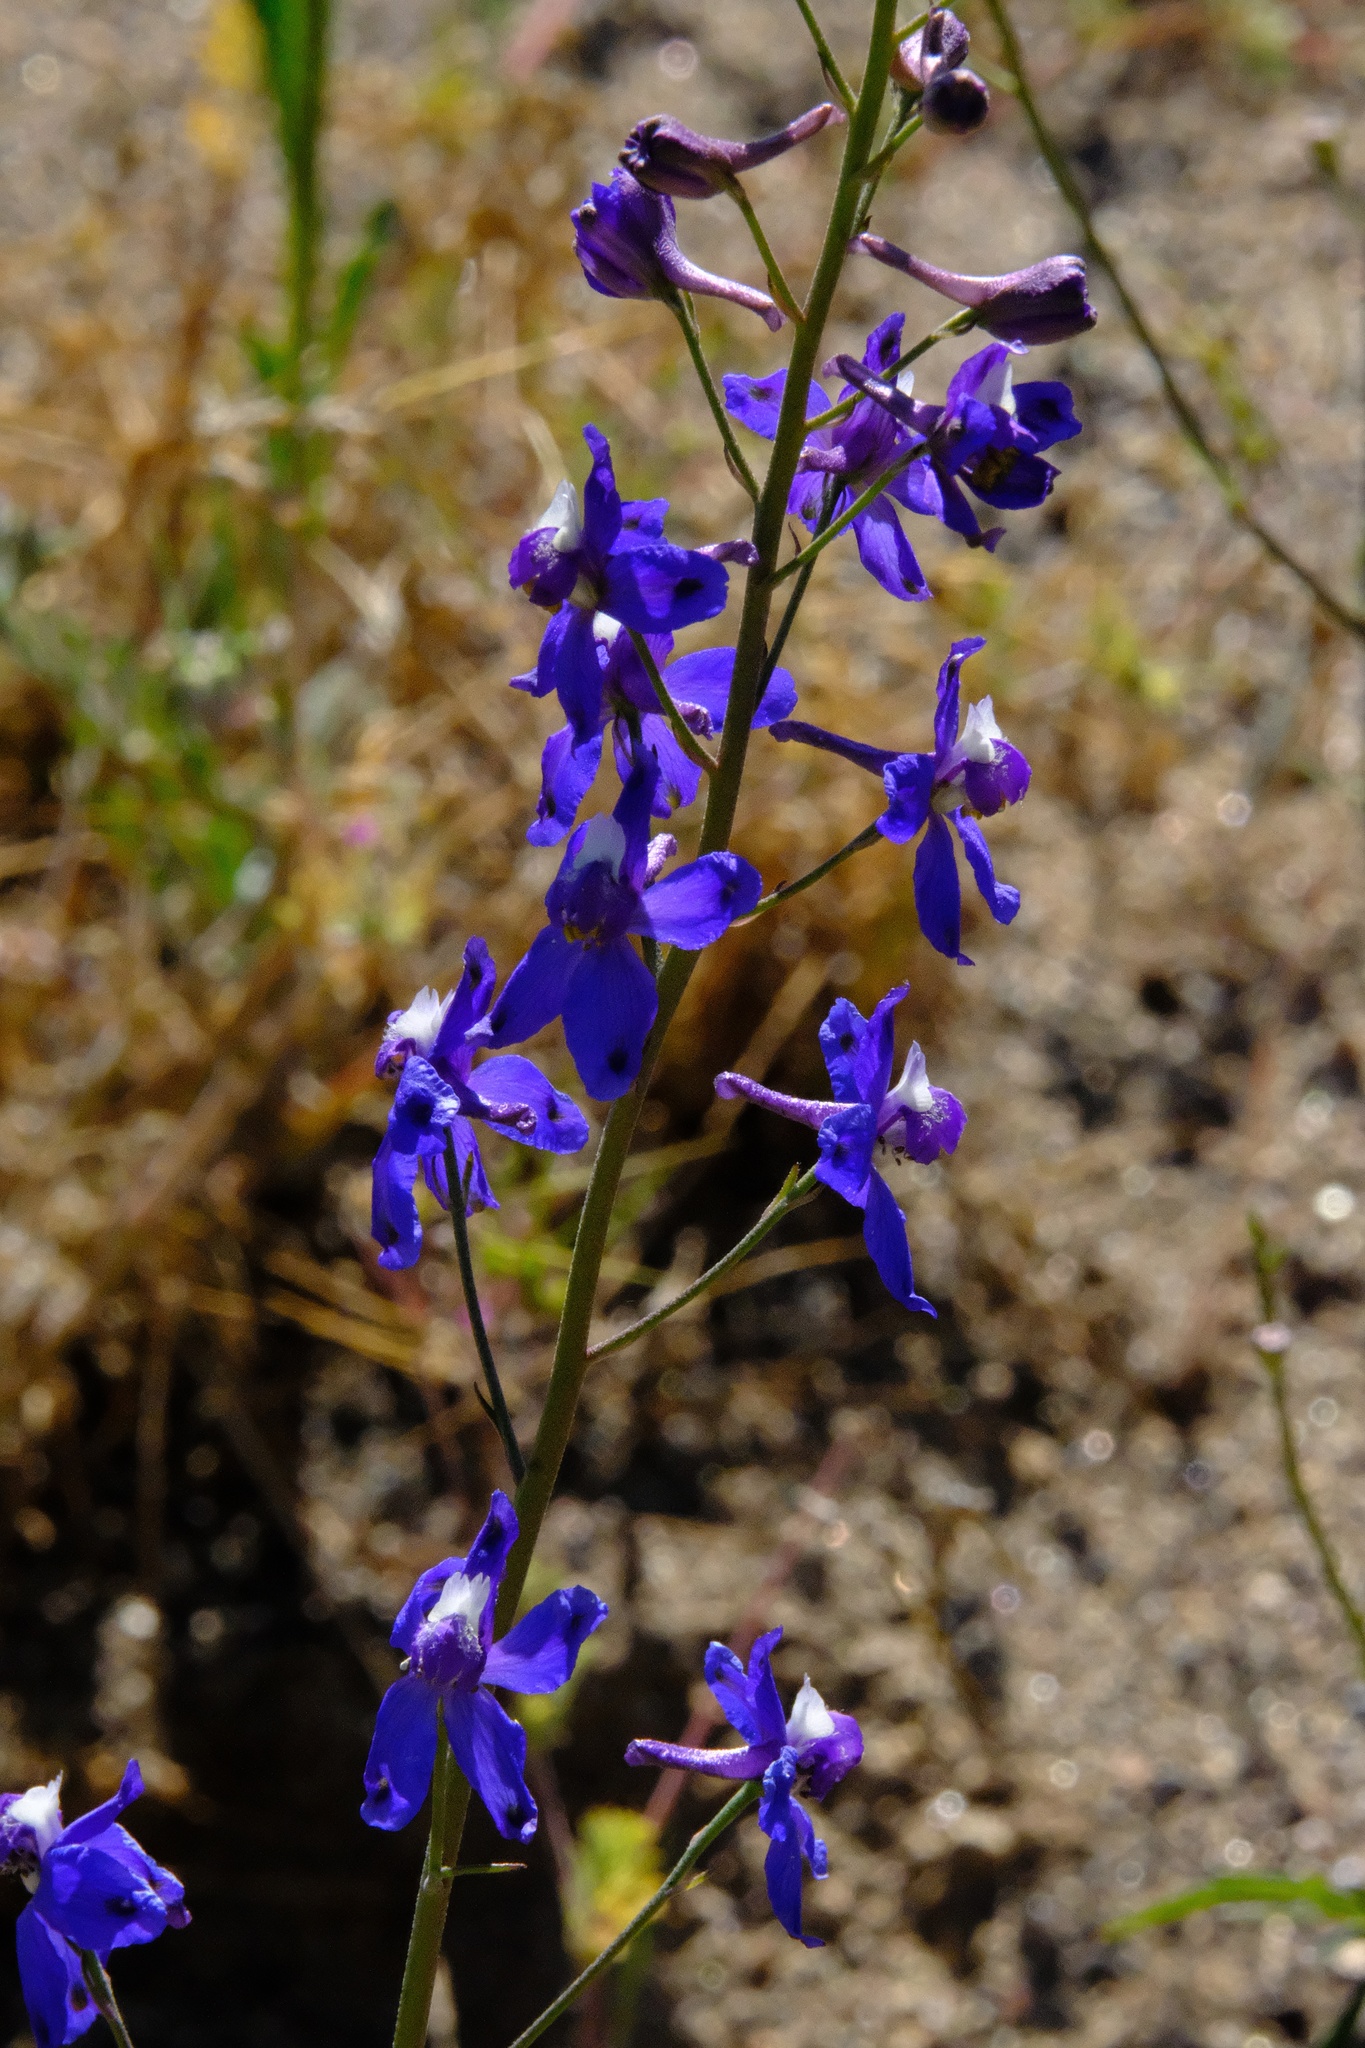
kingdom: Plantae
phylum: Tracheophyta
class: Magnoliopsida
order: Ranunculales
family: Ranunculaceae
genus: Delphinium
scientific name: Delphinium parryi
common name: Parry's larkspur
